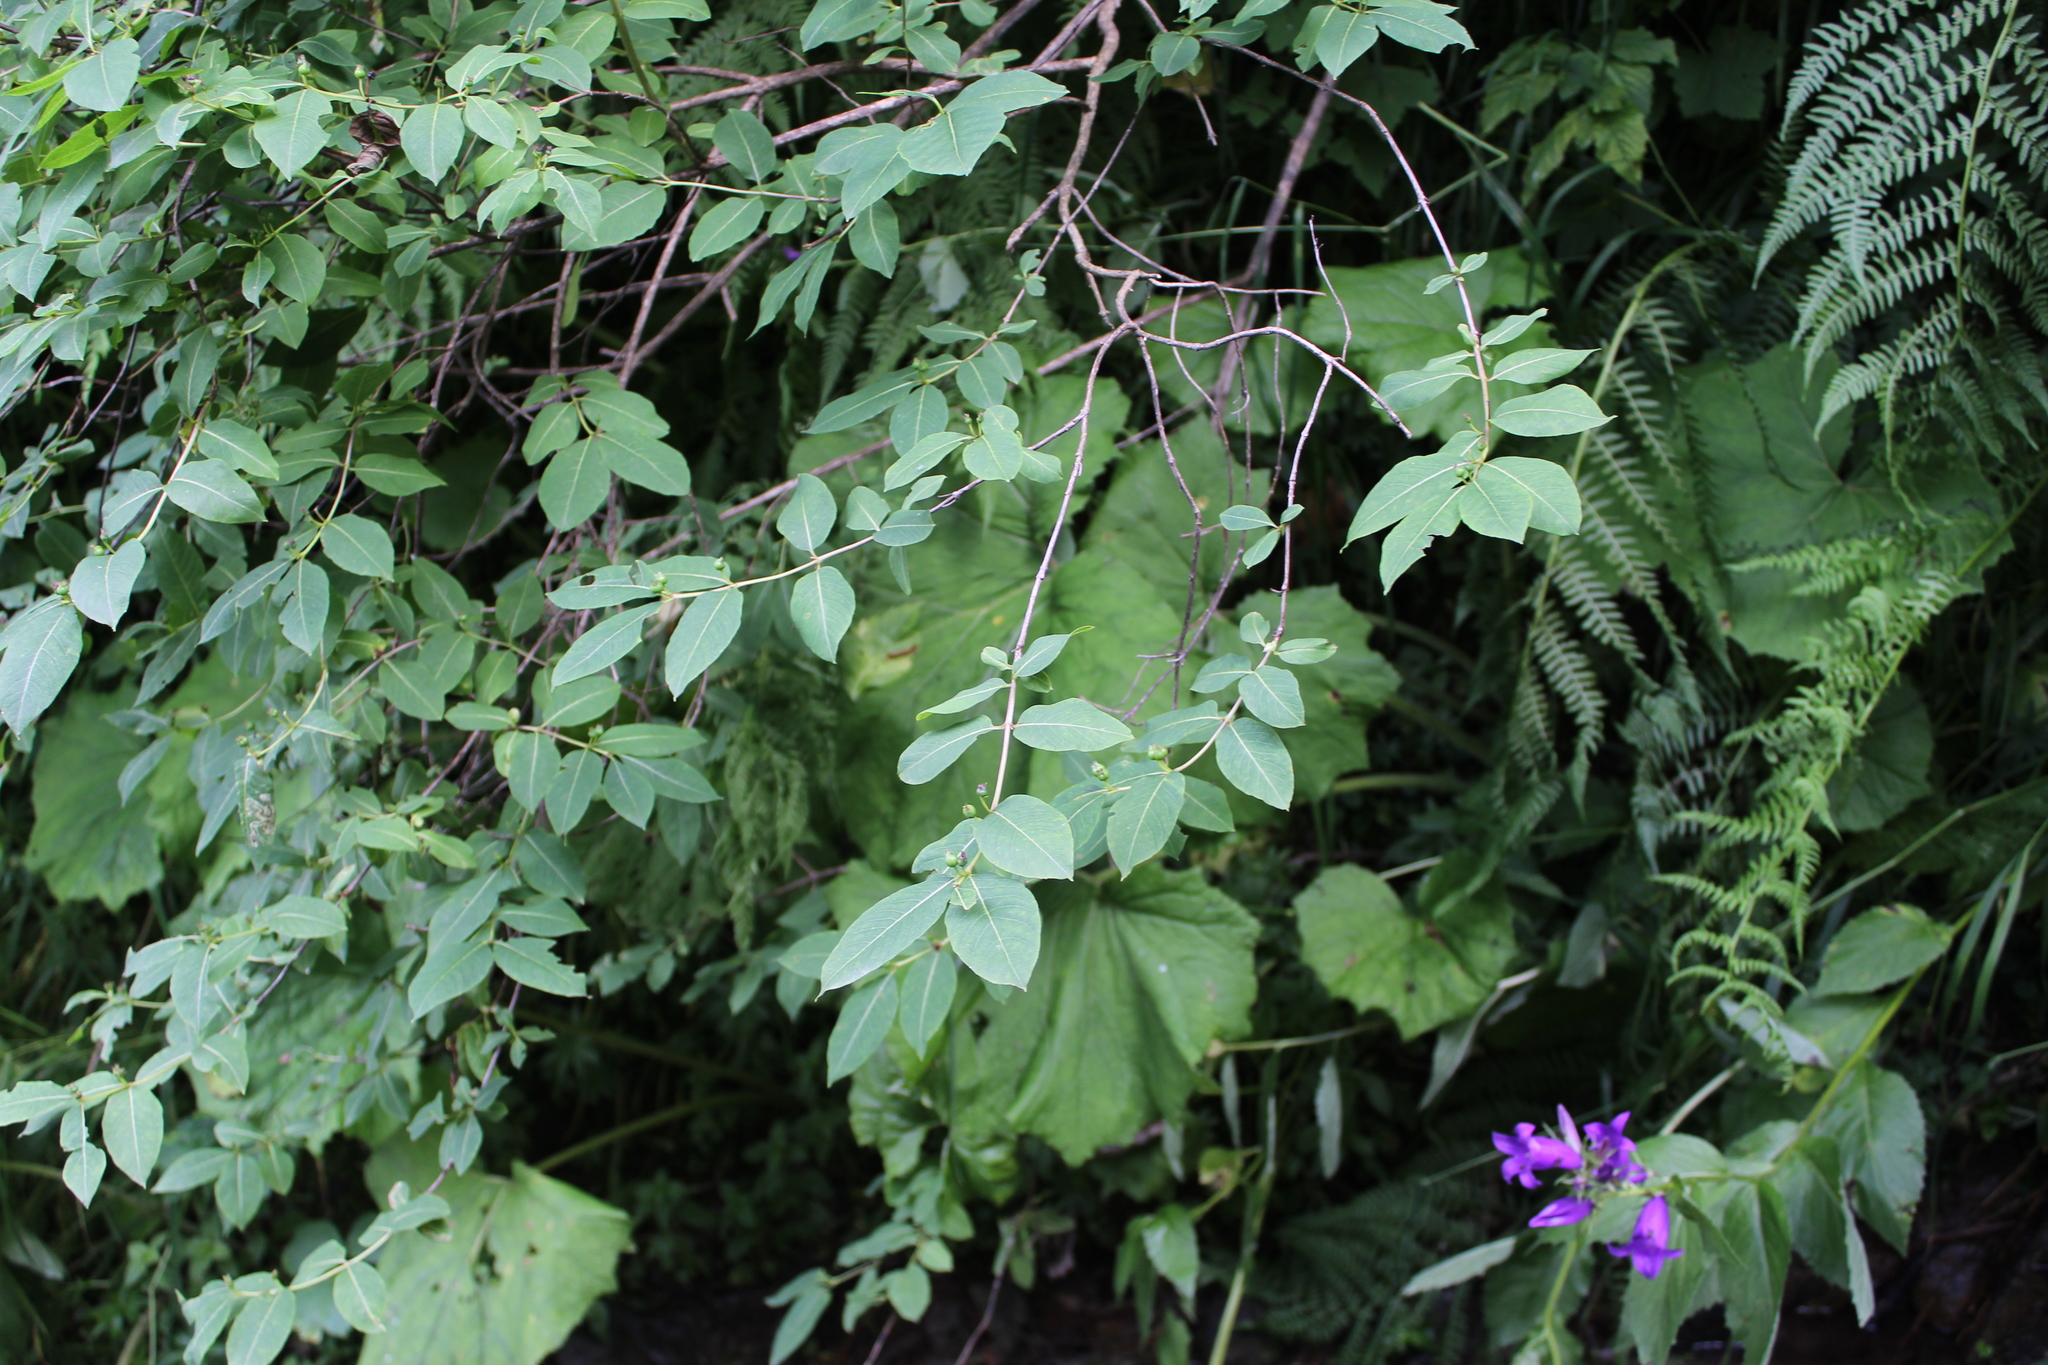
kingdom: Plantae
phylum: Tracheophyta
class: Magnoliopsida
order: Dipsacales
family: Caprifoliaceae
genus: Lonicera
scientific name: Lonicera caucasica
